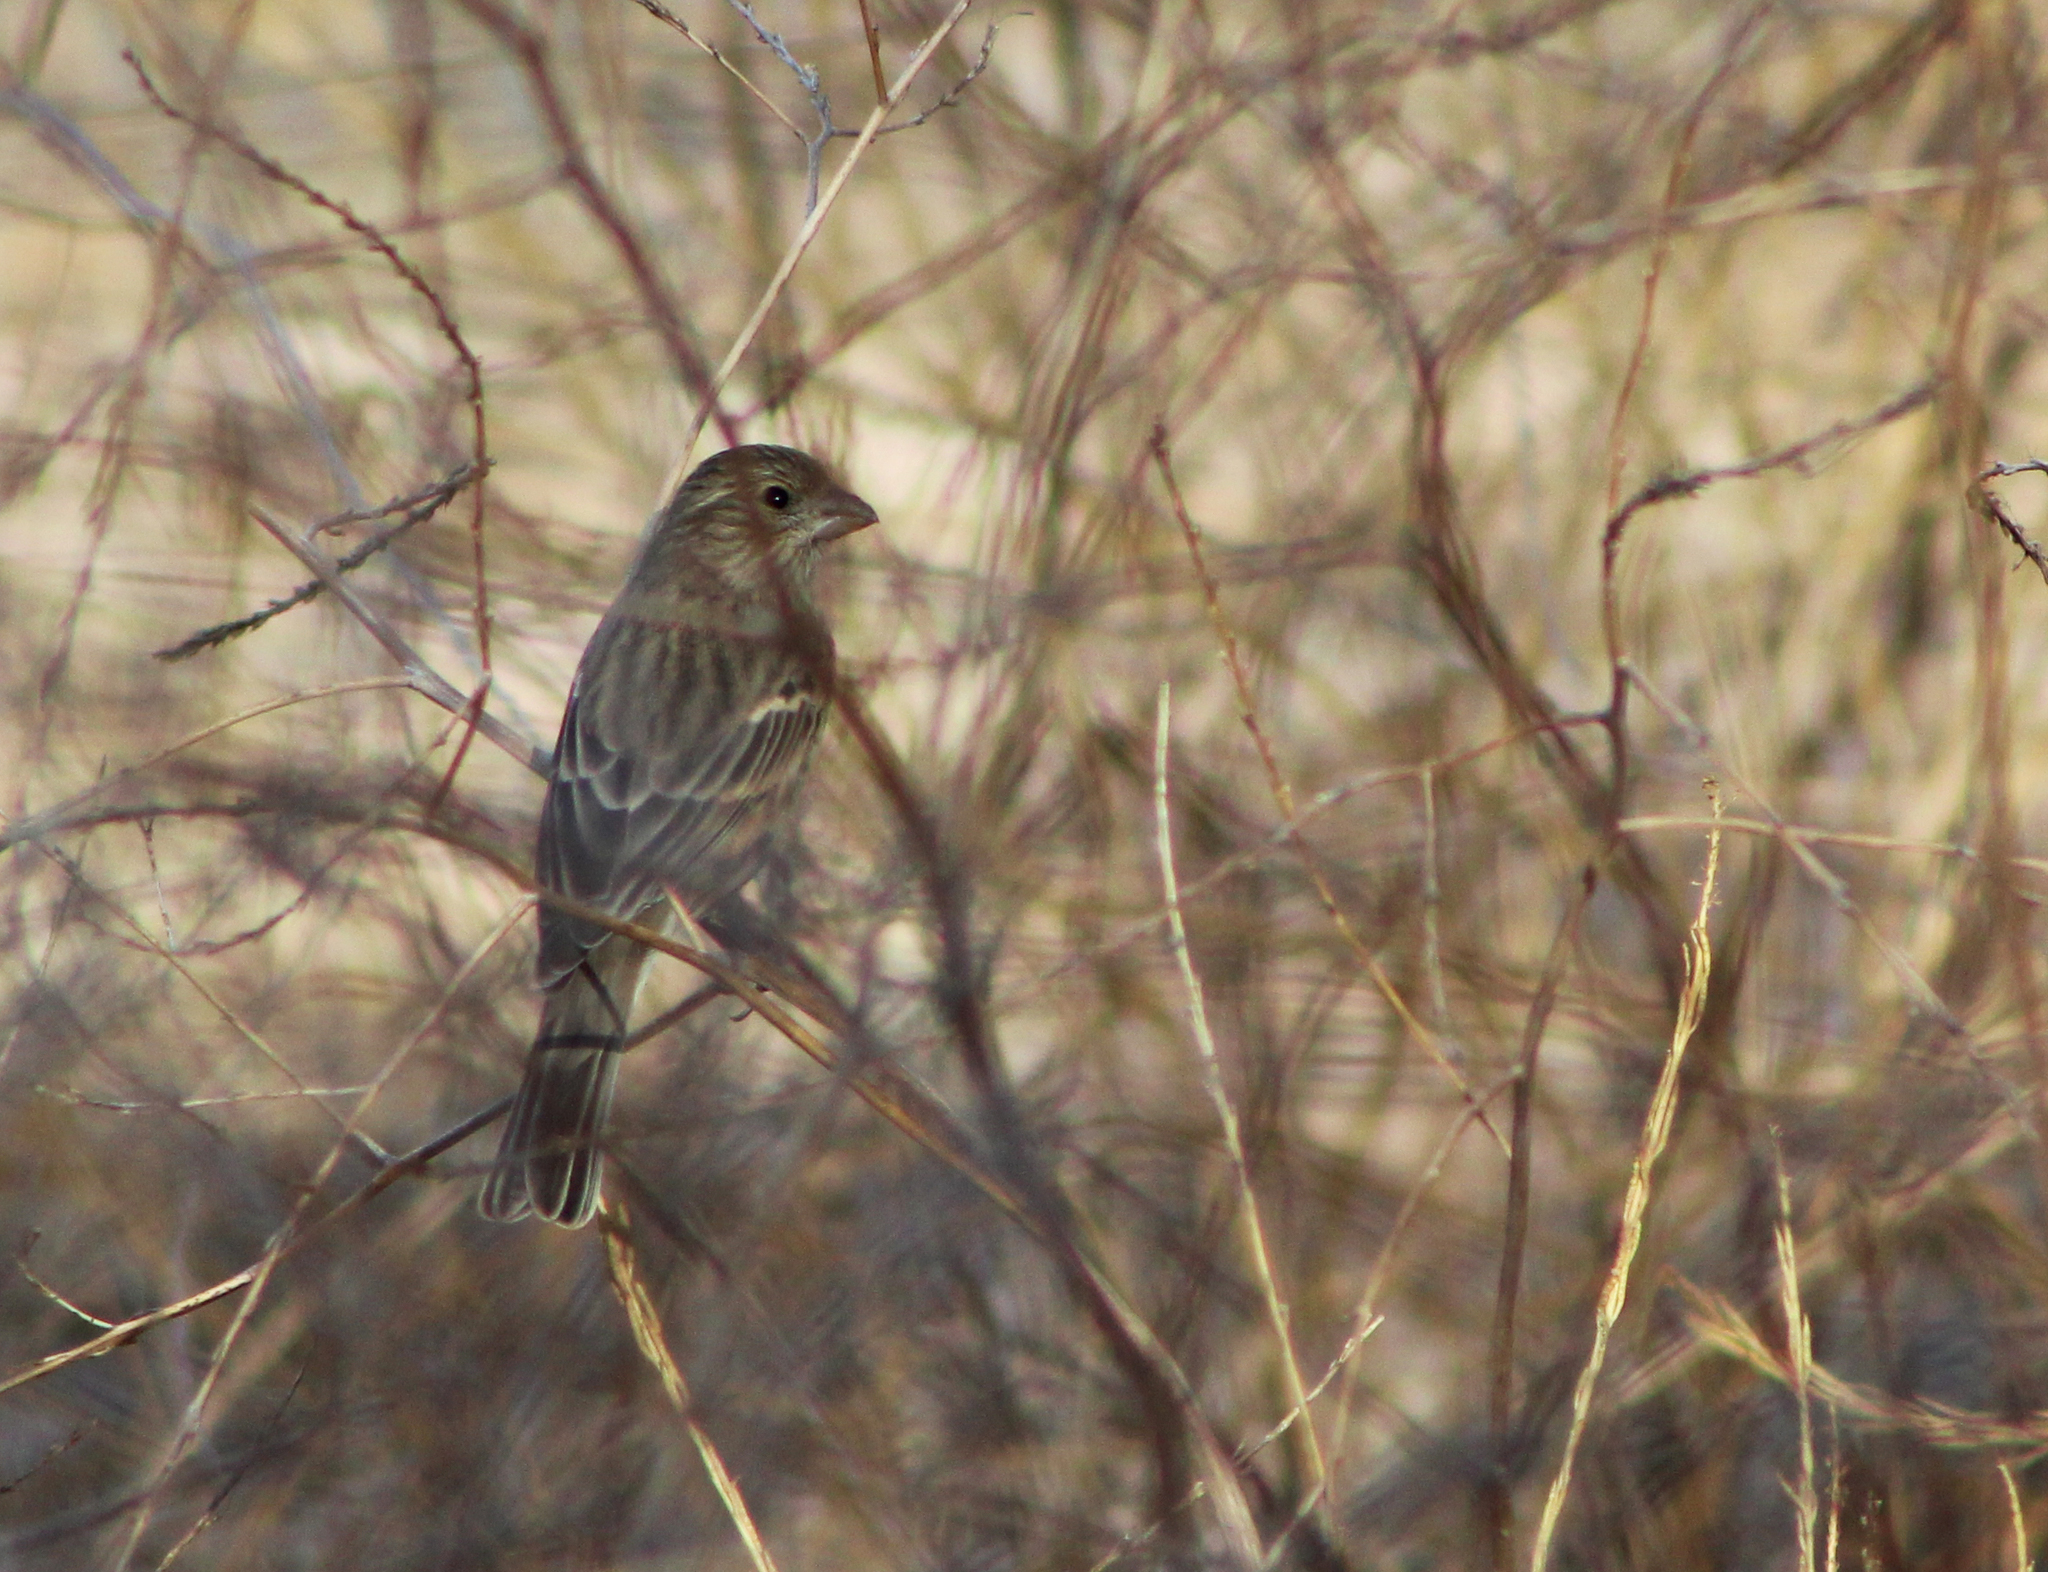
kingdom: Animalia
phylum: Chordata
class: Aves
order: Passeriformes
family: Fringillidae
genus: Haemorhous
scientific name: Haemorhous mexicanus
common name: House finch
